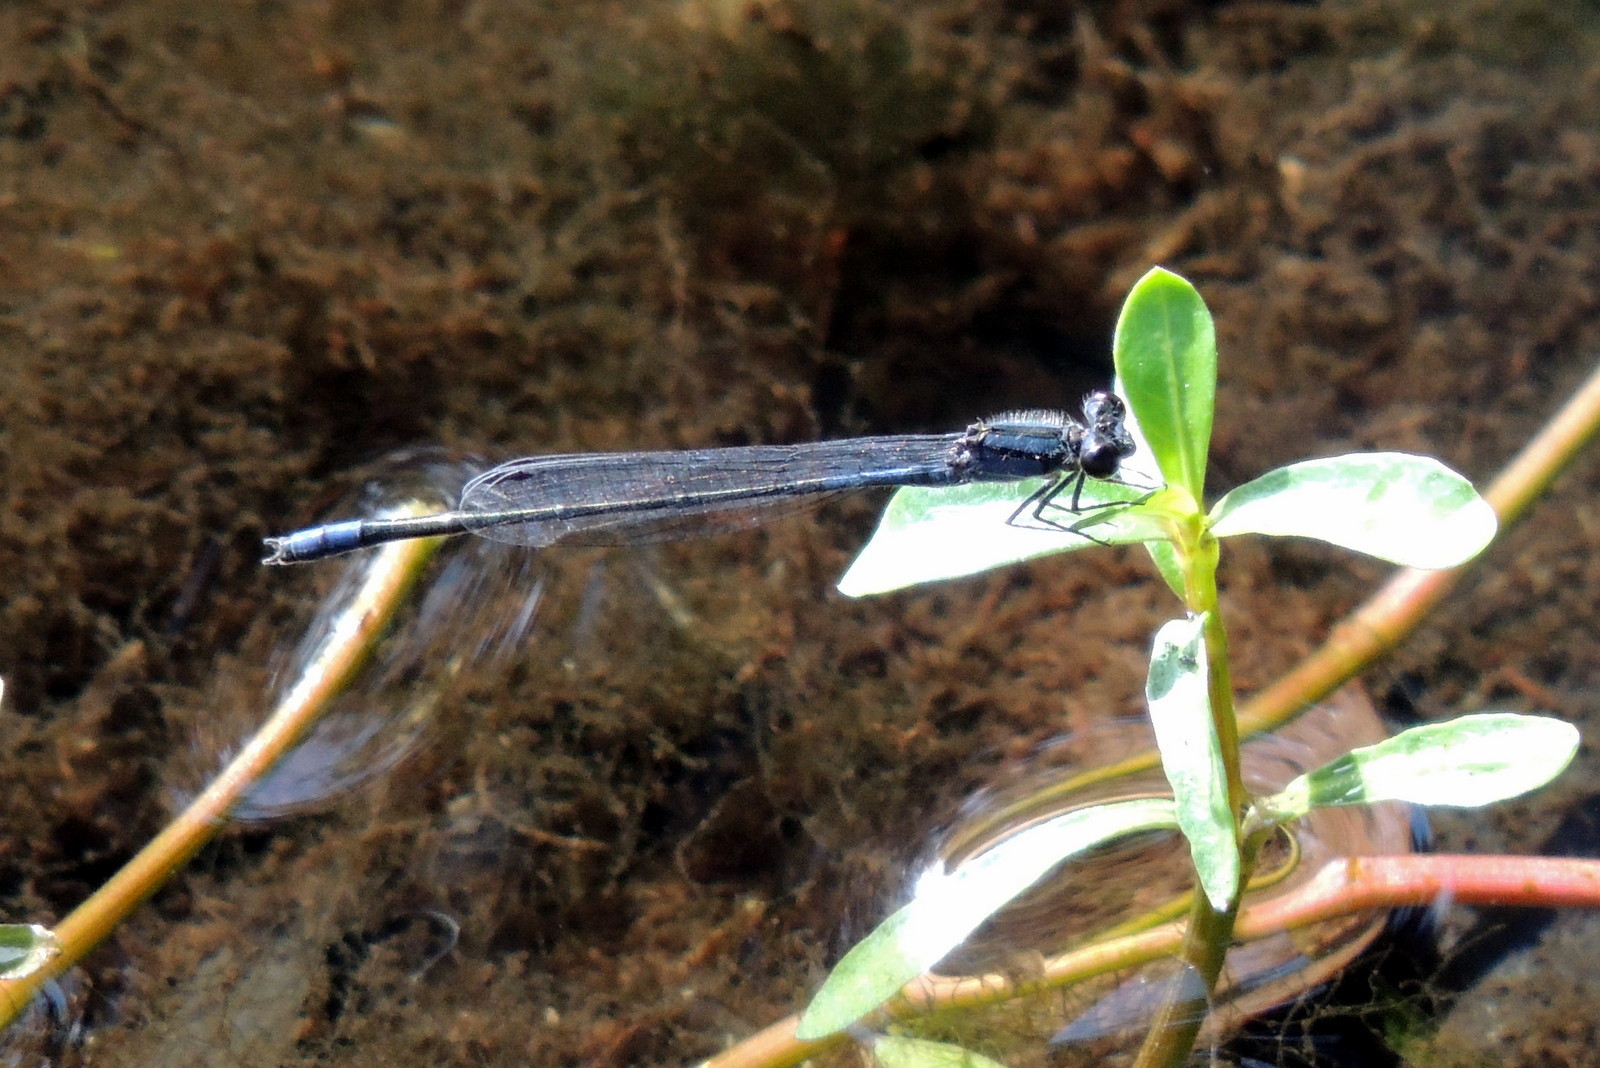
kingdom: Animalia
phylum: Arthropoda
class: Insecta
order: Odonata
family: Coenagrionidae
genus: Enallagma
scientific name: Enallagma cardenium
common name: Purple bluet
